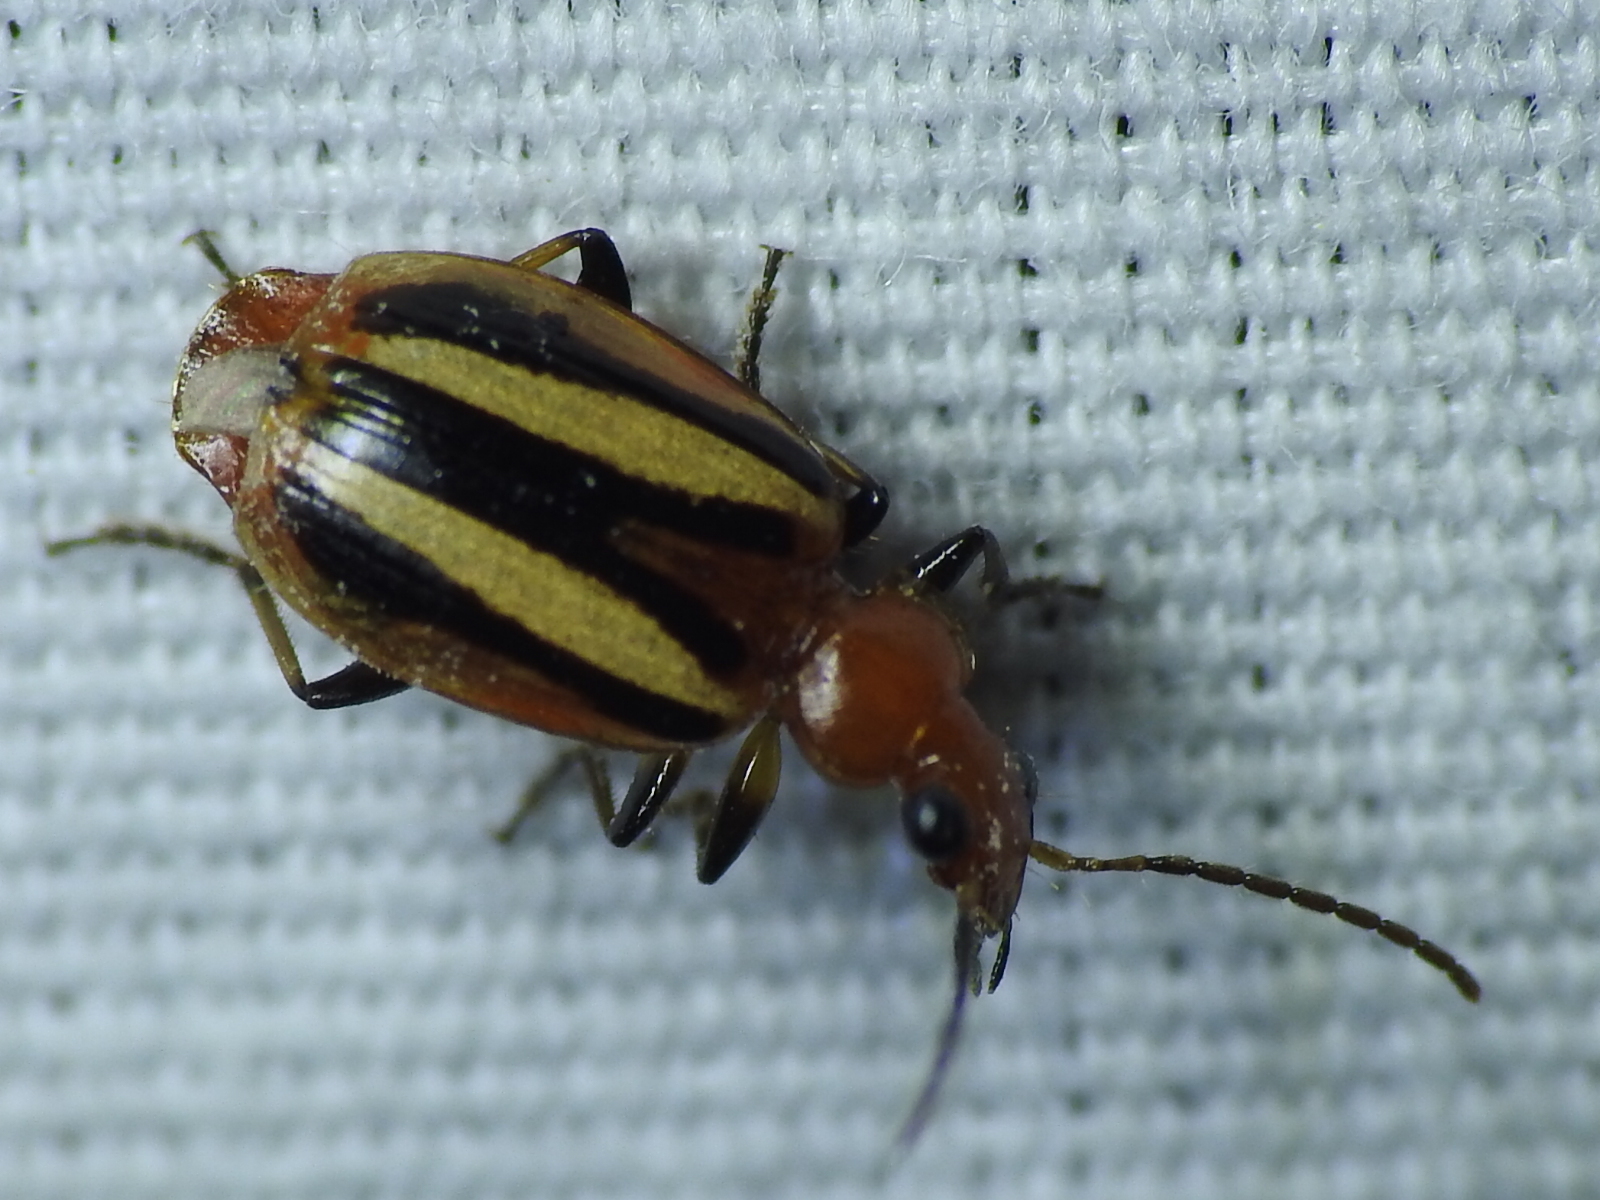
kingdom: Animalia
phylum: Arthropoda
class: Insecta
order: Coleoptera
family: Carabidae
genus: Lebia
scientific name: Lebia vittata
